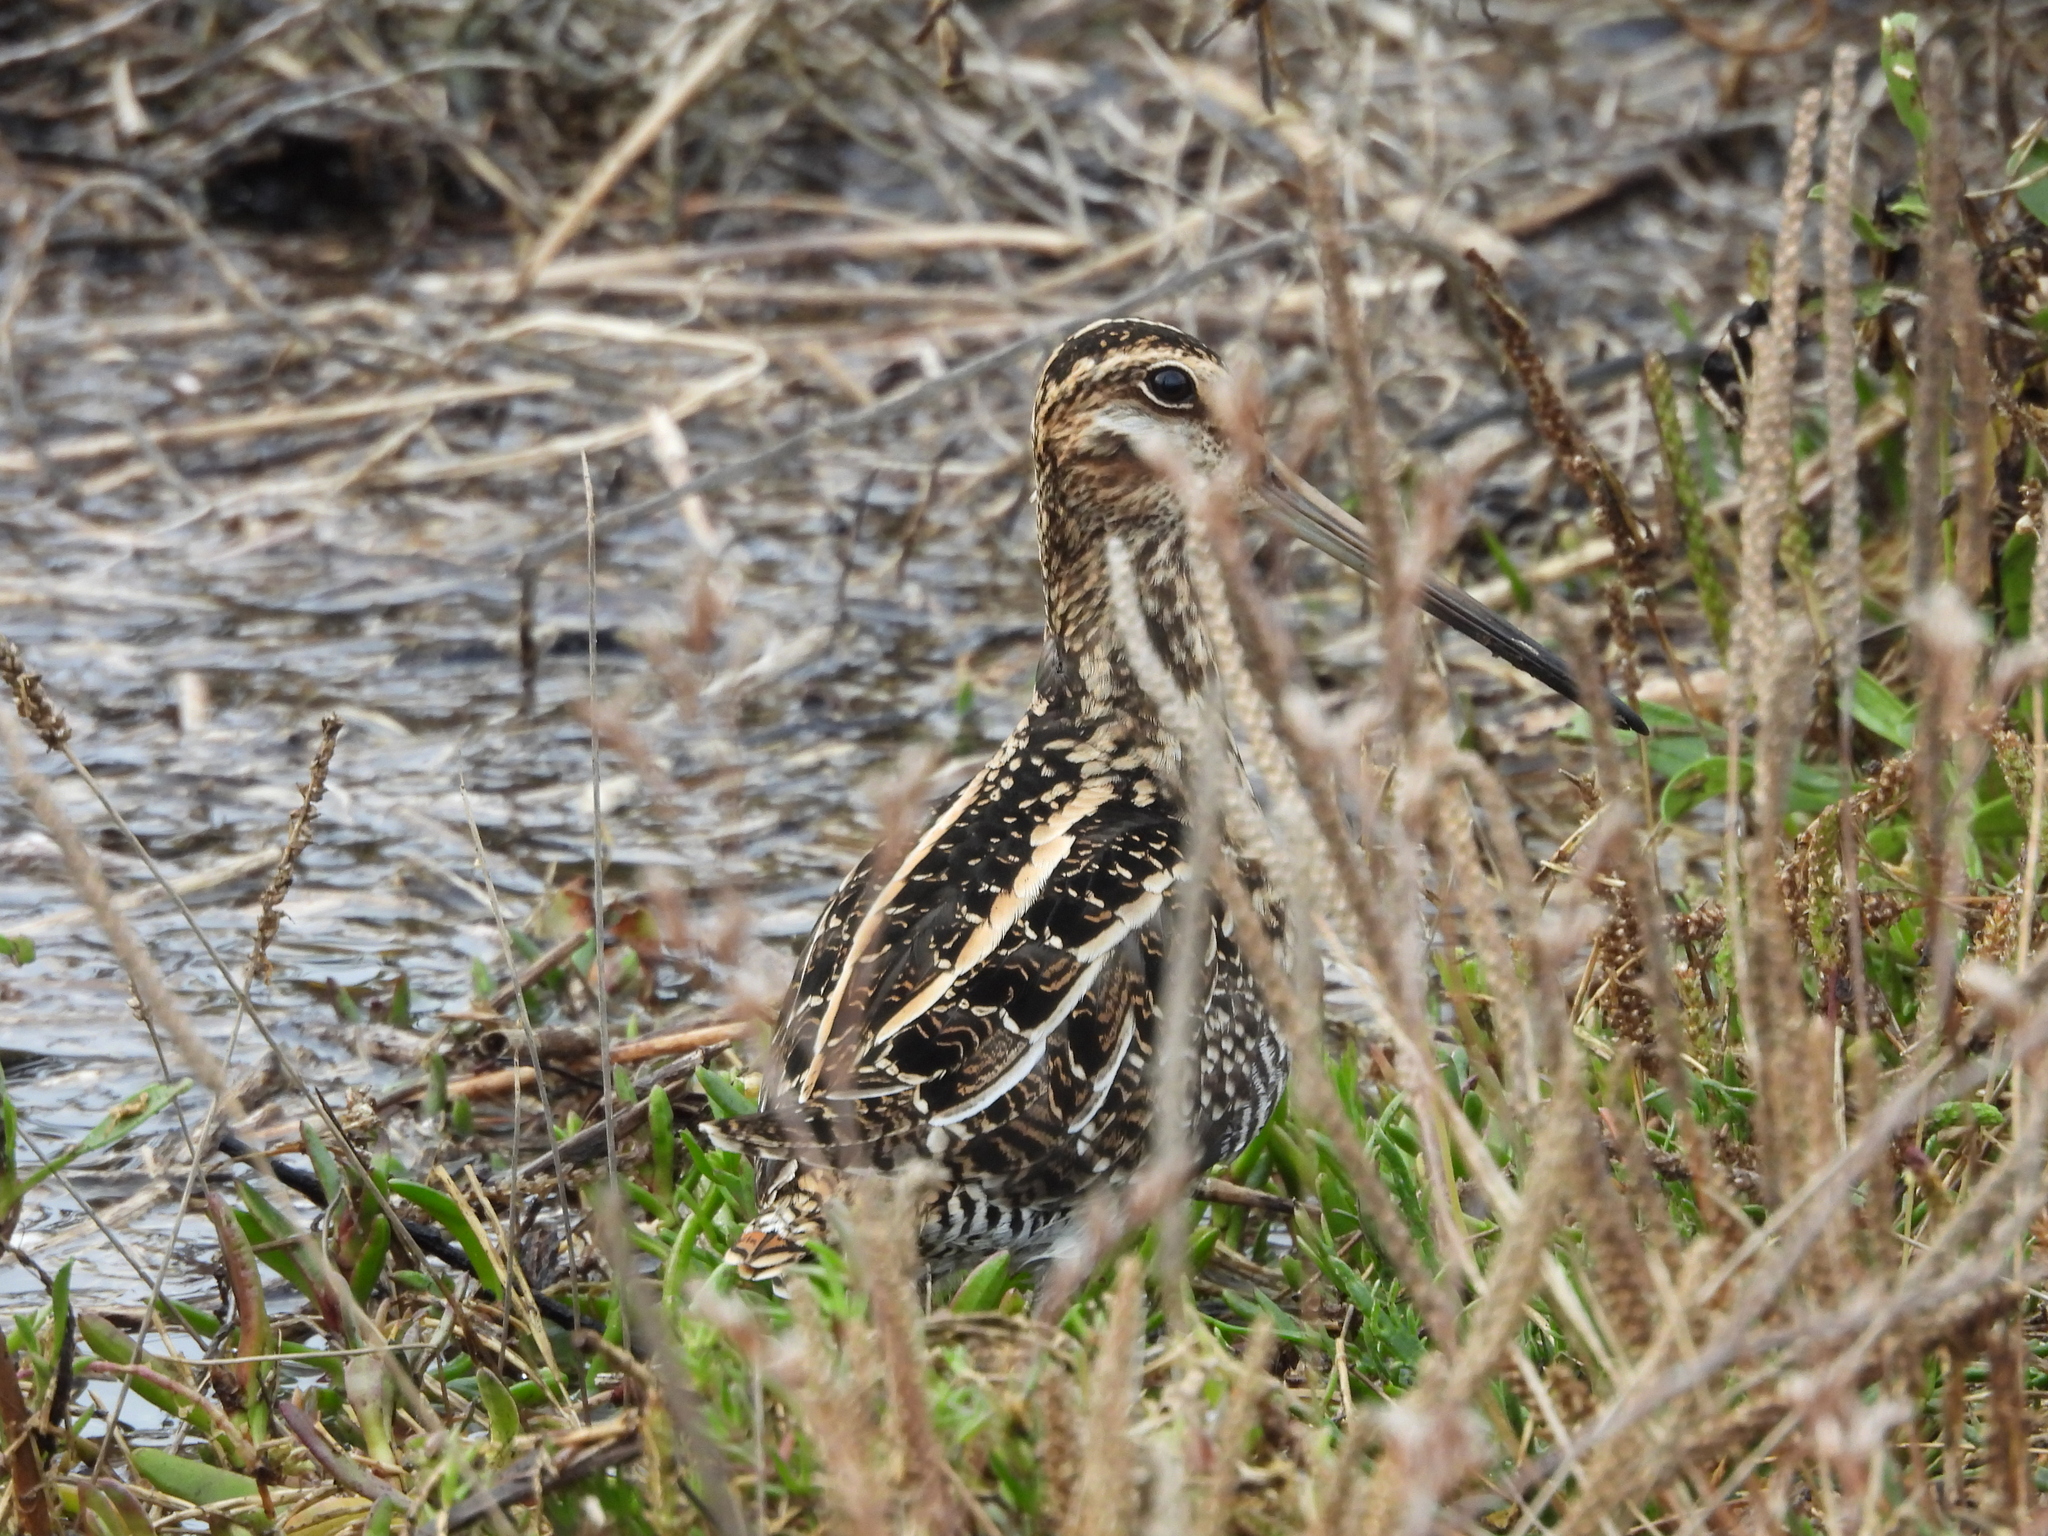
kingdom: Animalia
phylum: Chordata
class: Aves
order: Charadriiformes
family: Scolopacidae
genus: Gallinago
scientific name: Gallinago delicata
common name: Wilson's snipe
